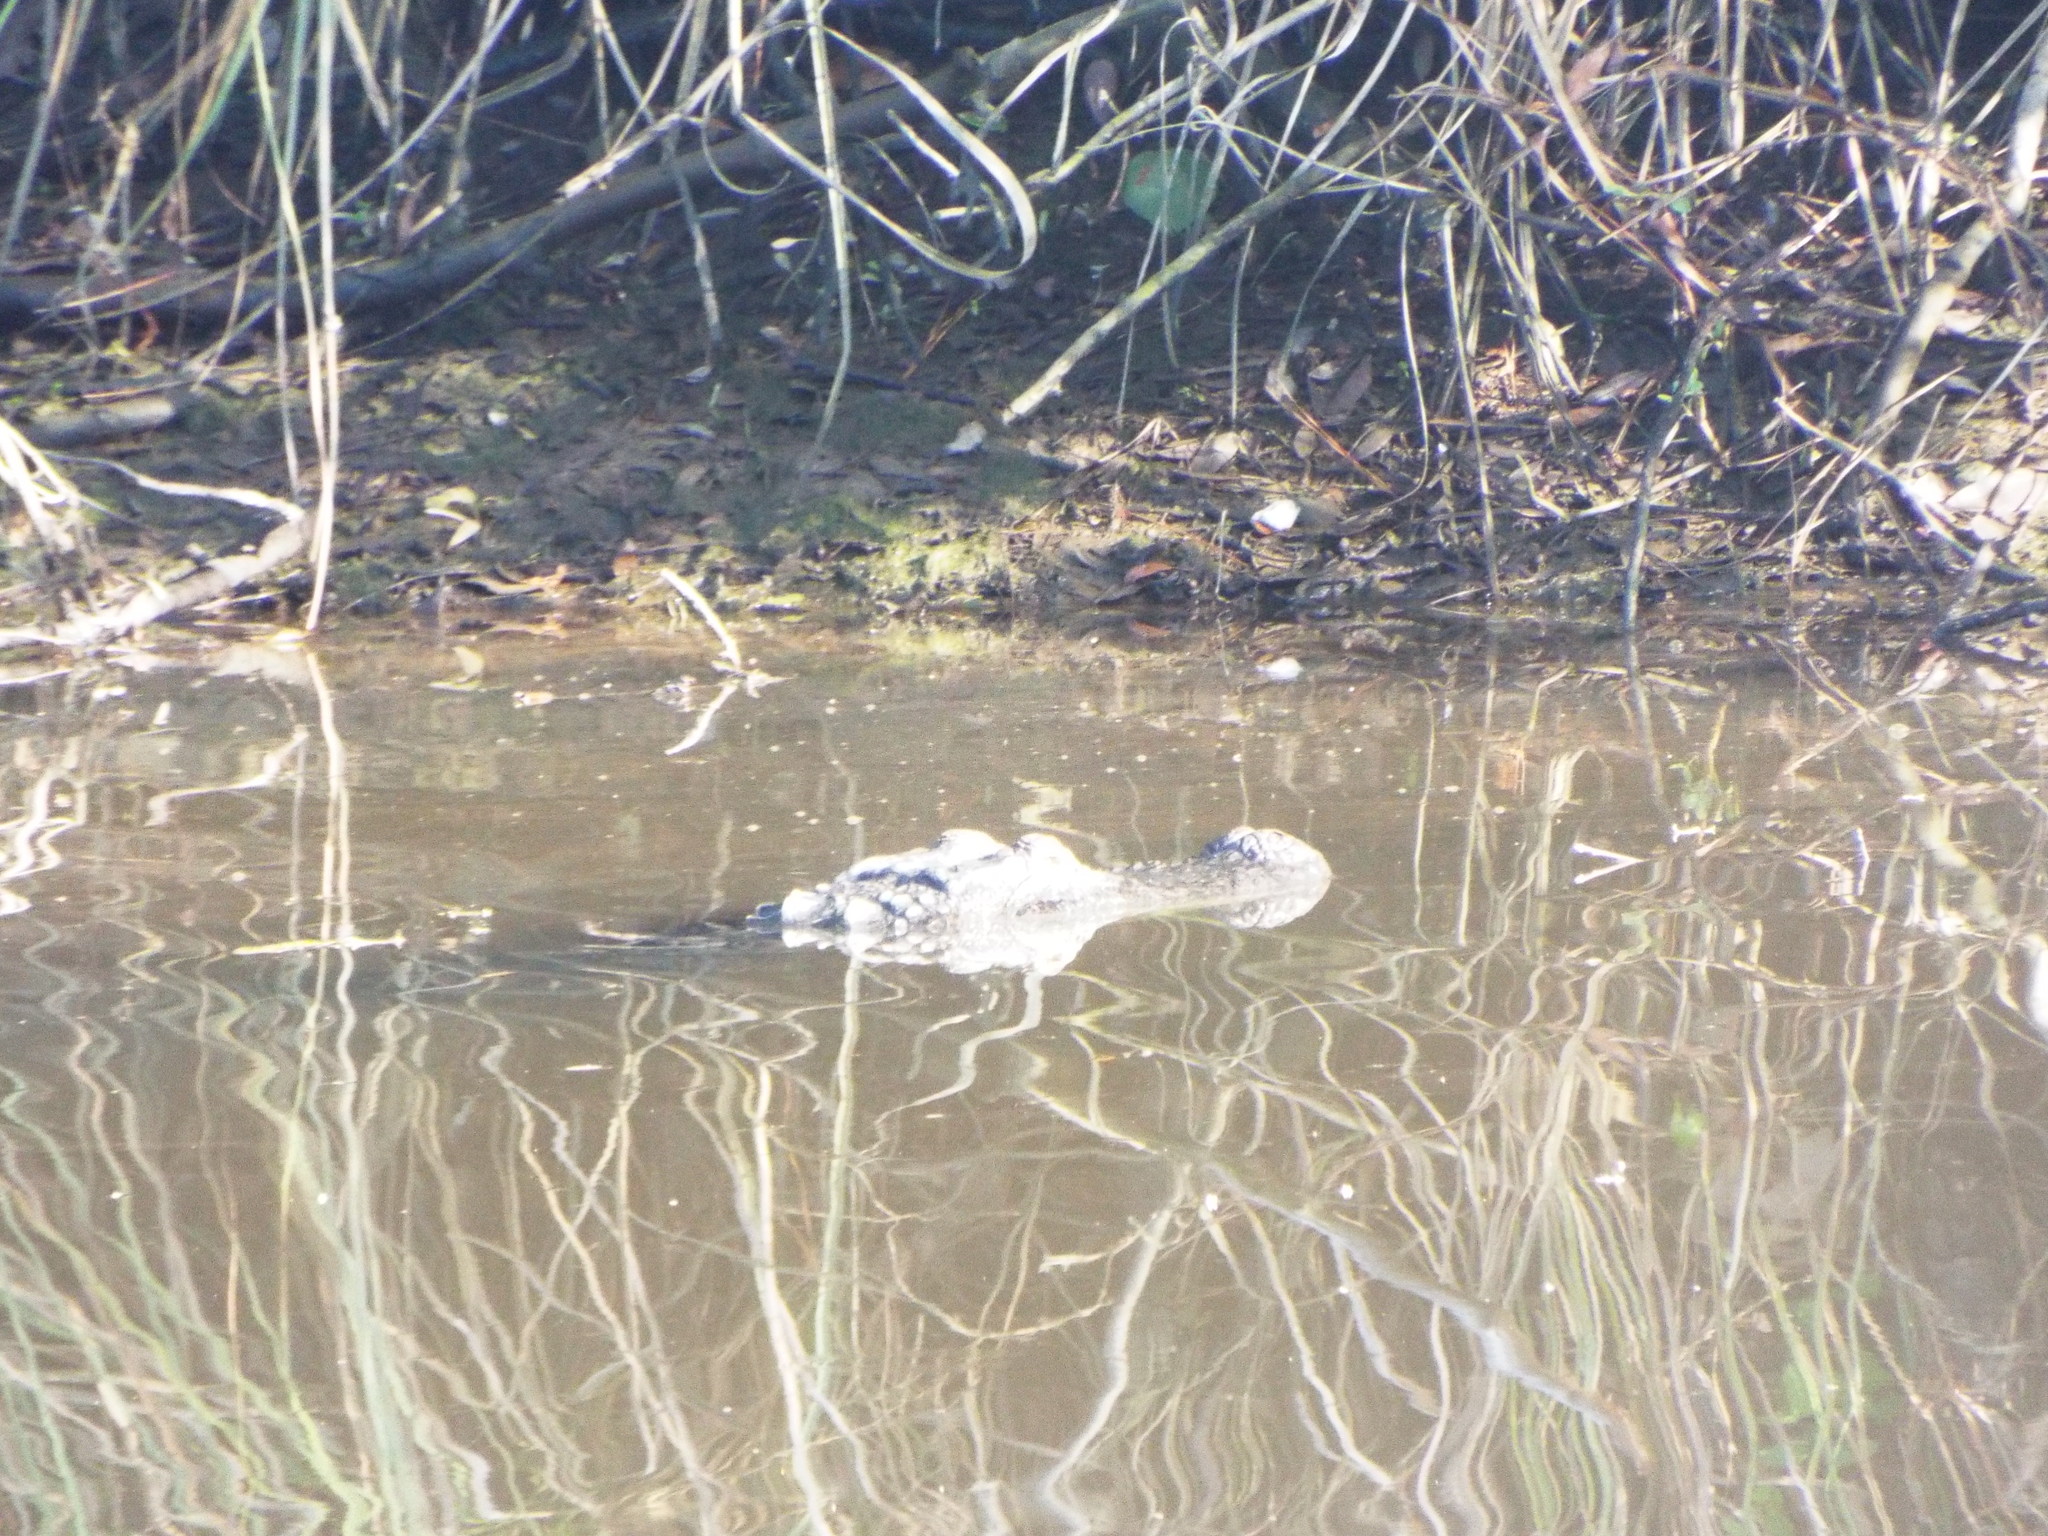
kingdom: Animalia
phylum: Chordata
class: Crocodylia
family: Alligatoridae
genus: Alligator
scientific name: Alligator mississippiensis
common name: American alligator
